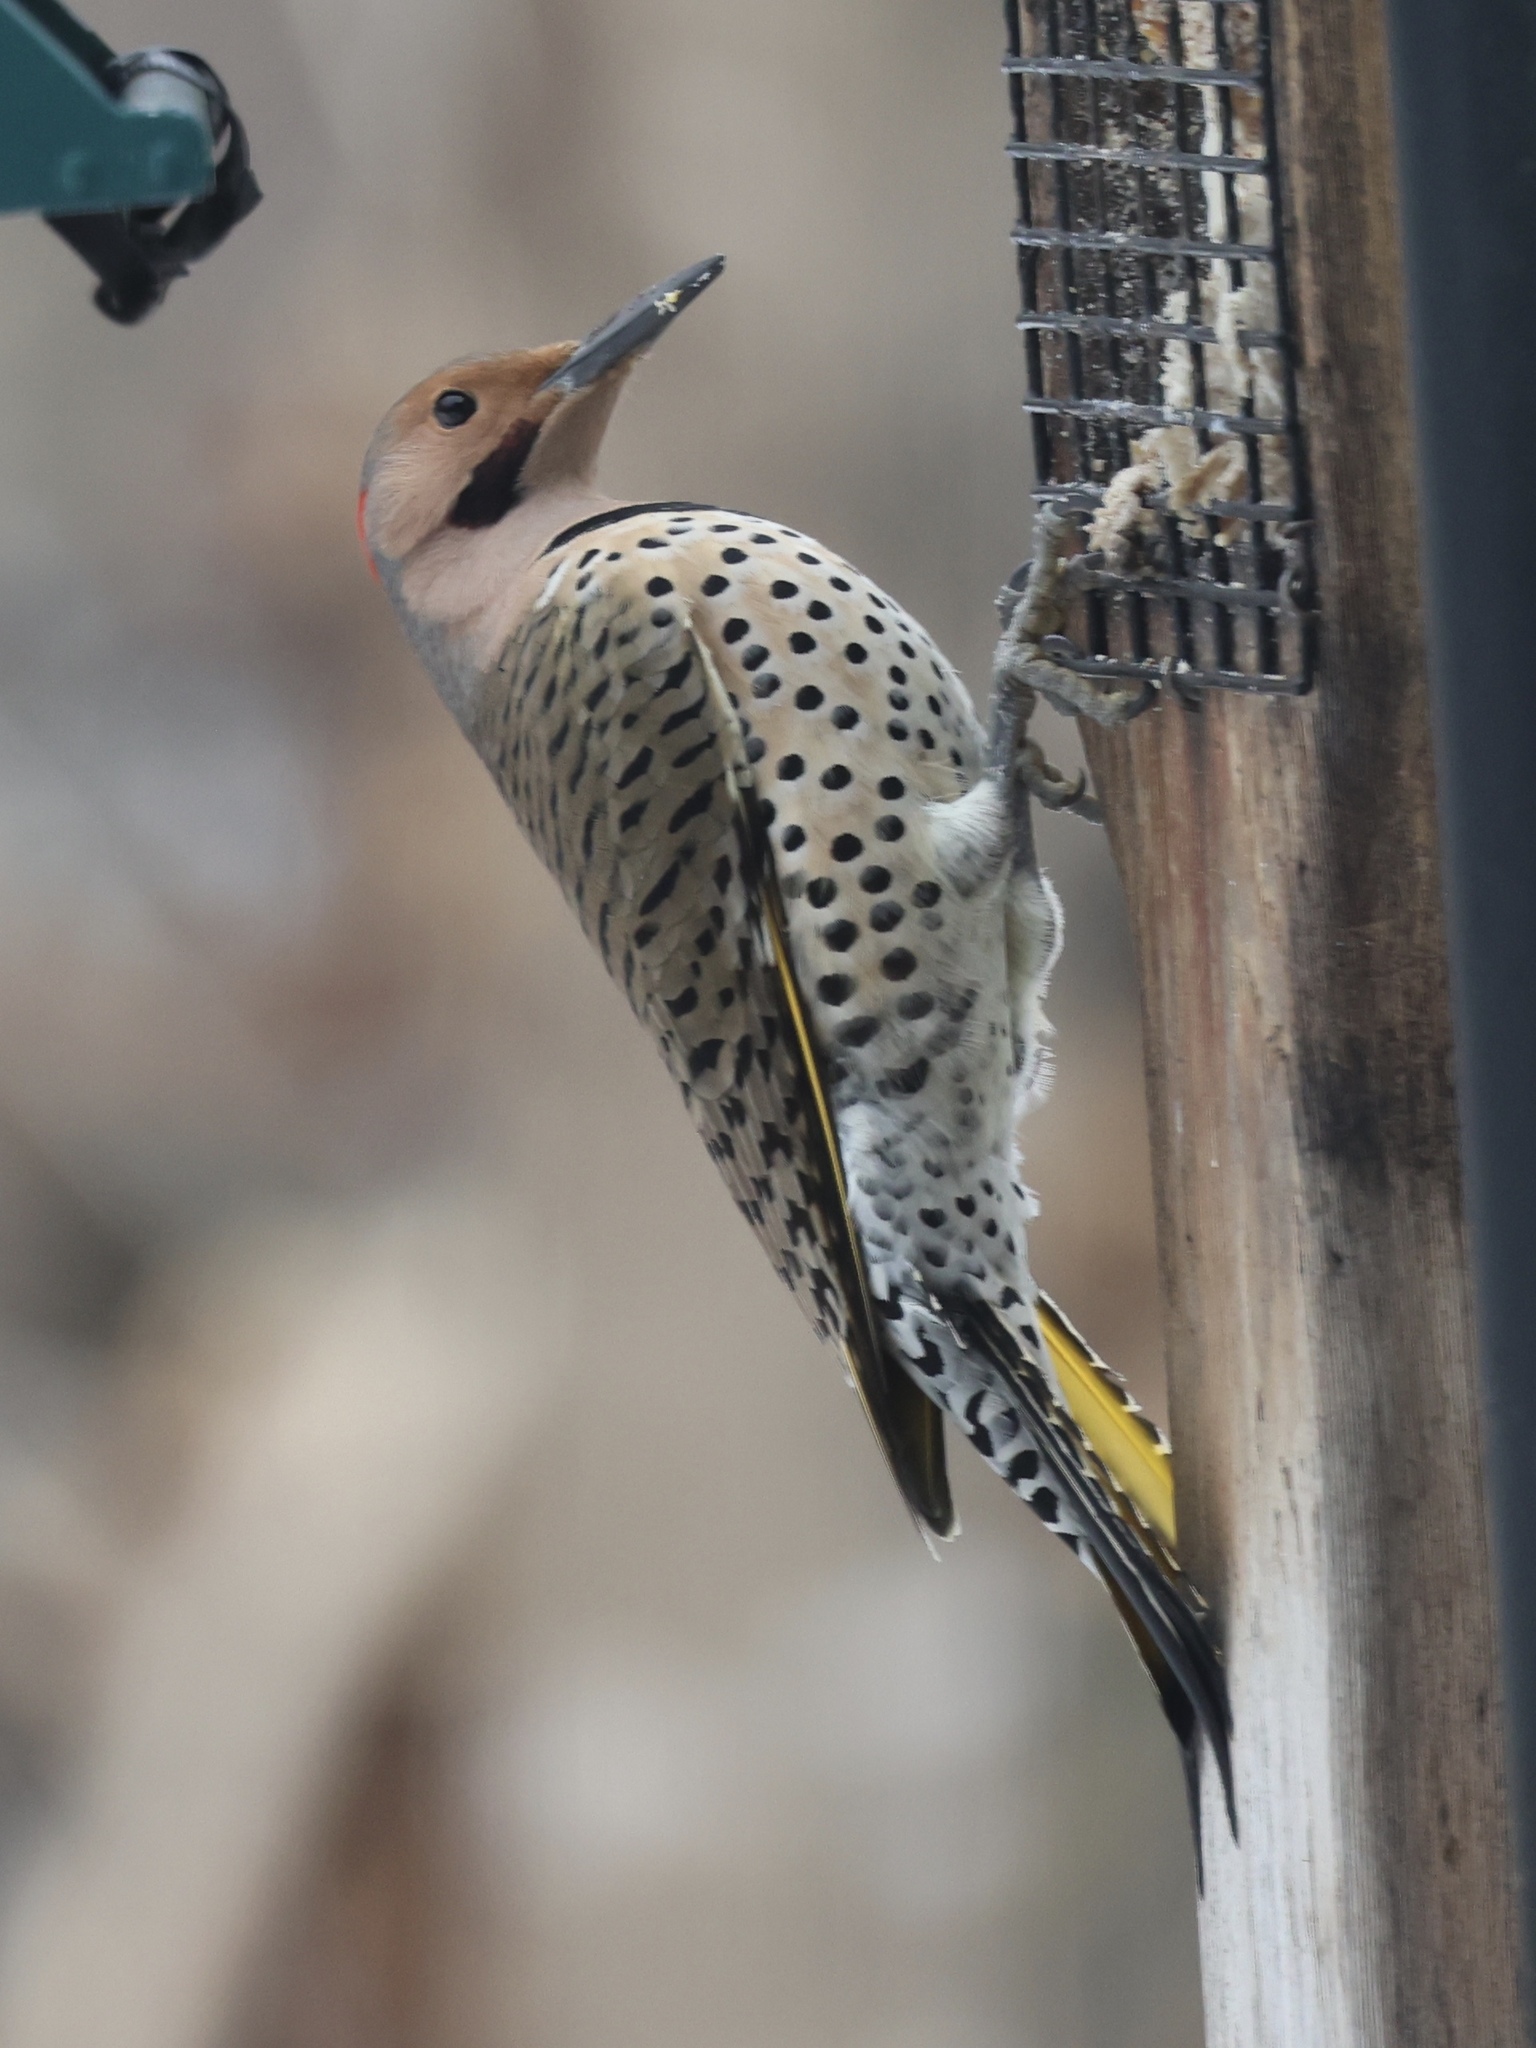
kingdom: Animalia
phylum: Chordata
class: Aves
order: Piciformes
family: Picidae
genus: Colaptes
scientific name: Colaptes auratus
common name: Northern flicker
